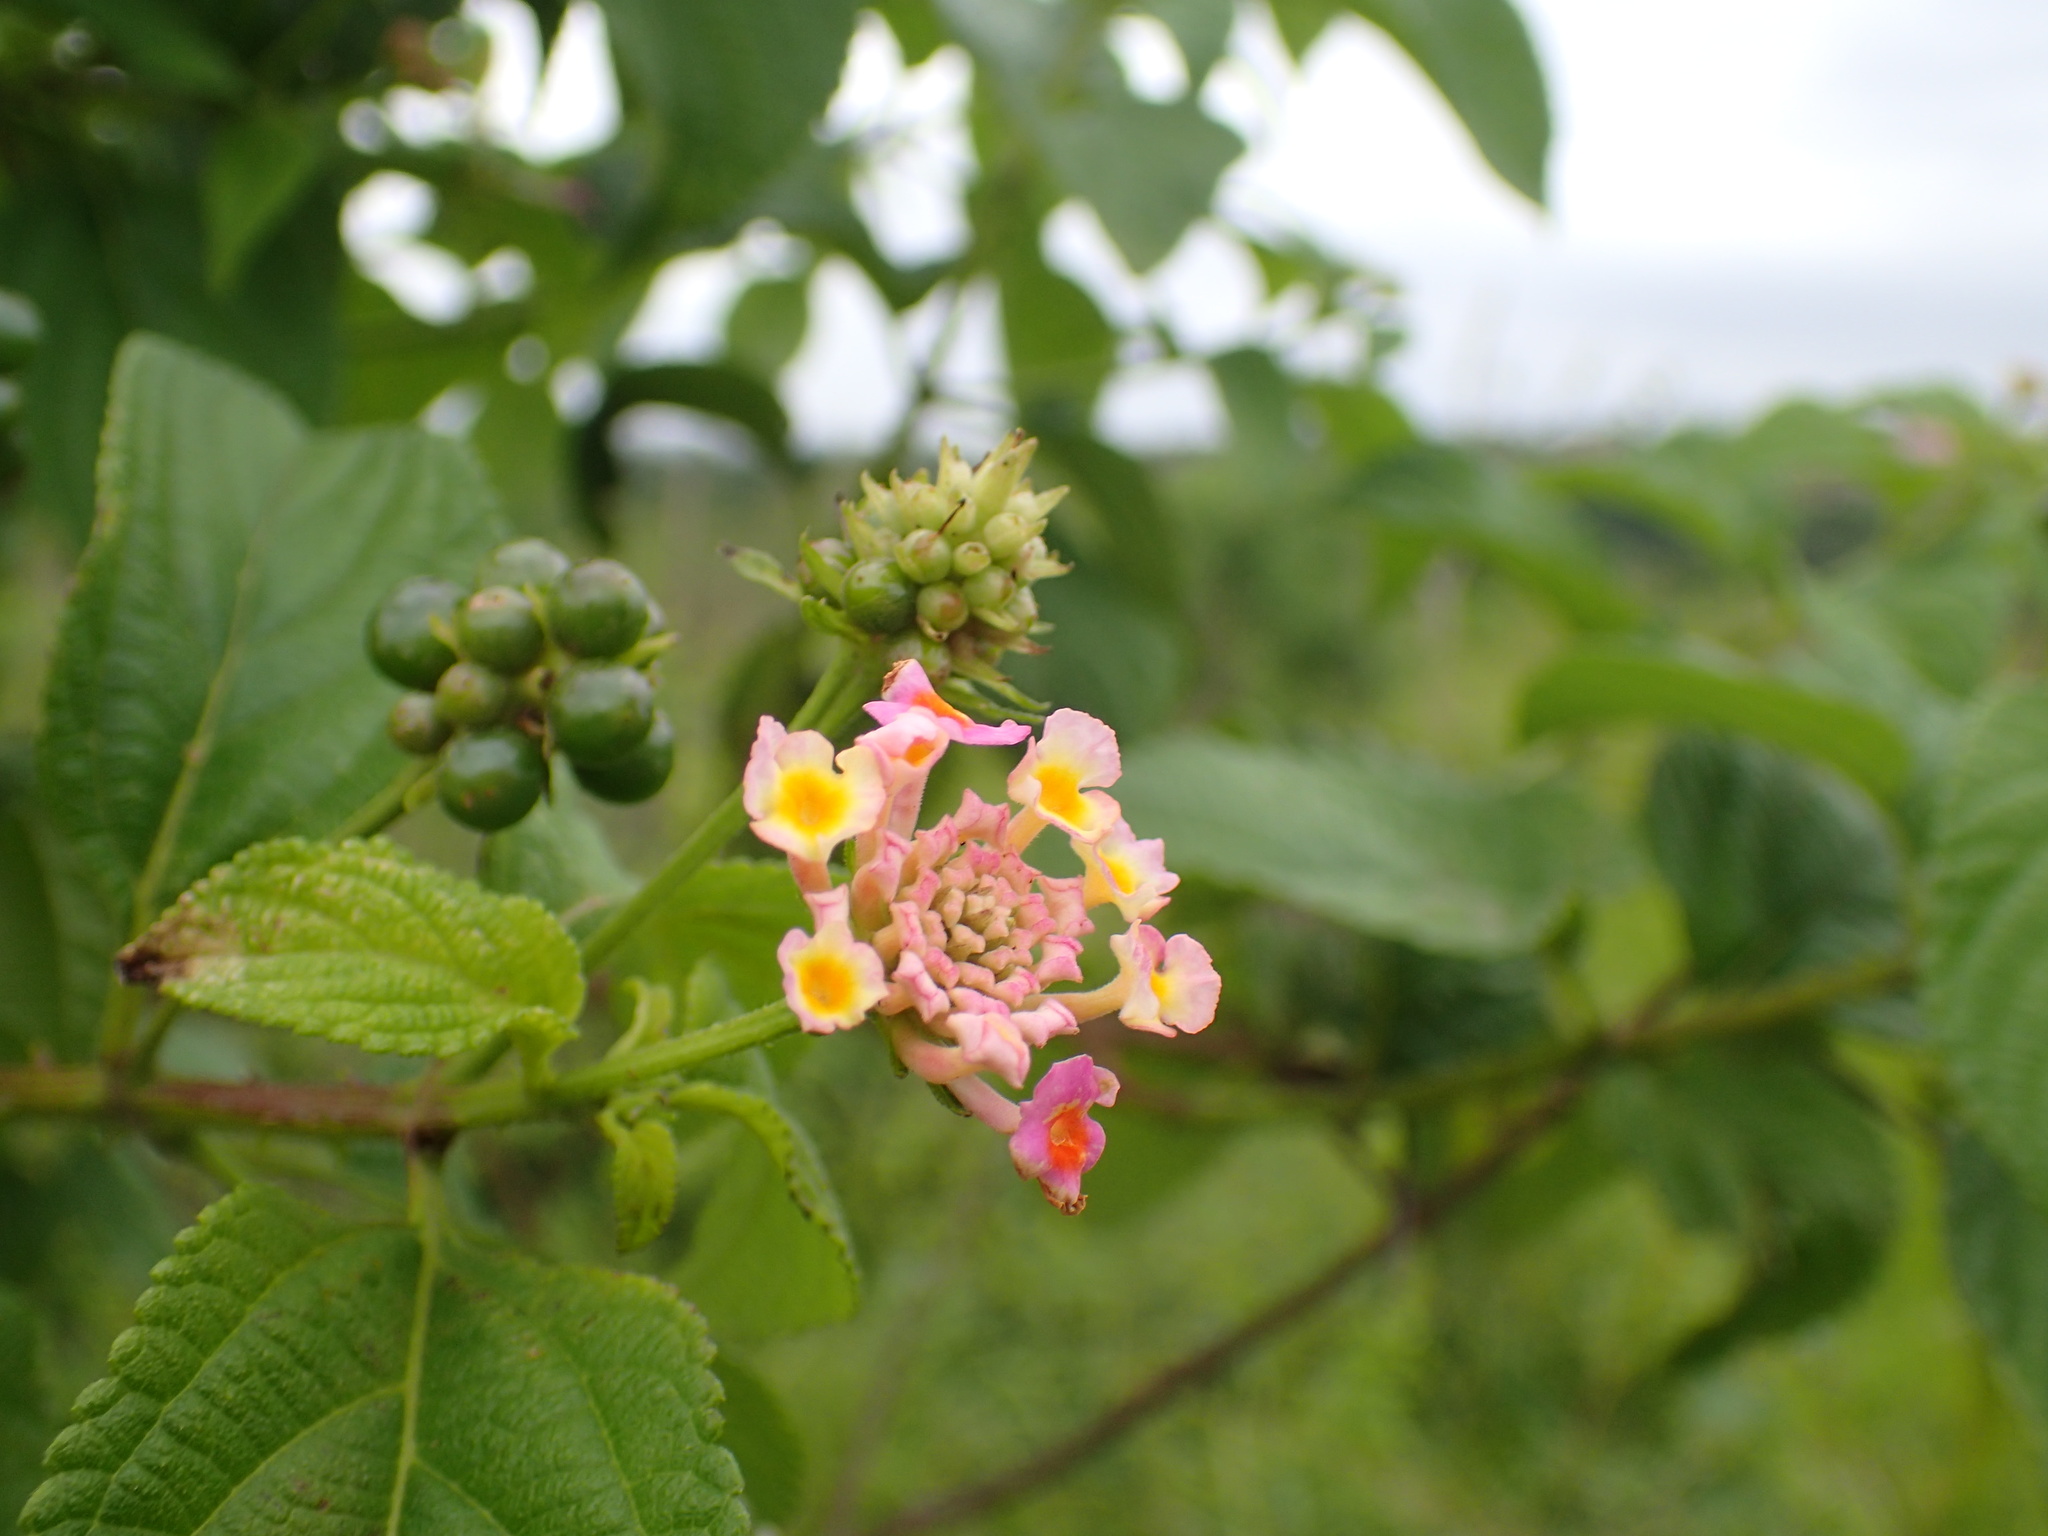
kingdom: Plantae
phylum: Tracheophyta
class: Magnoliopsida
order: Lamiales
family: Verbenaceae
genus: Lantana
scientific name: Lantana camara
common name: Lantana
